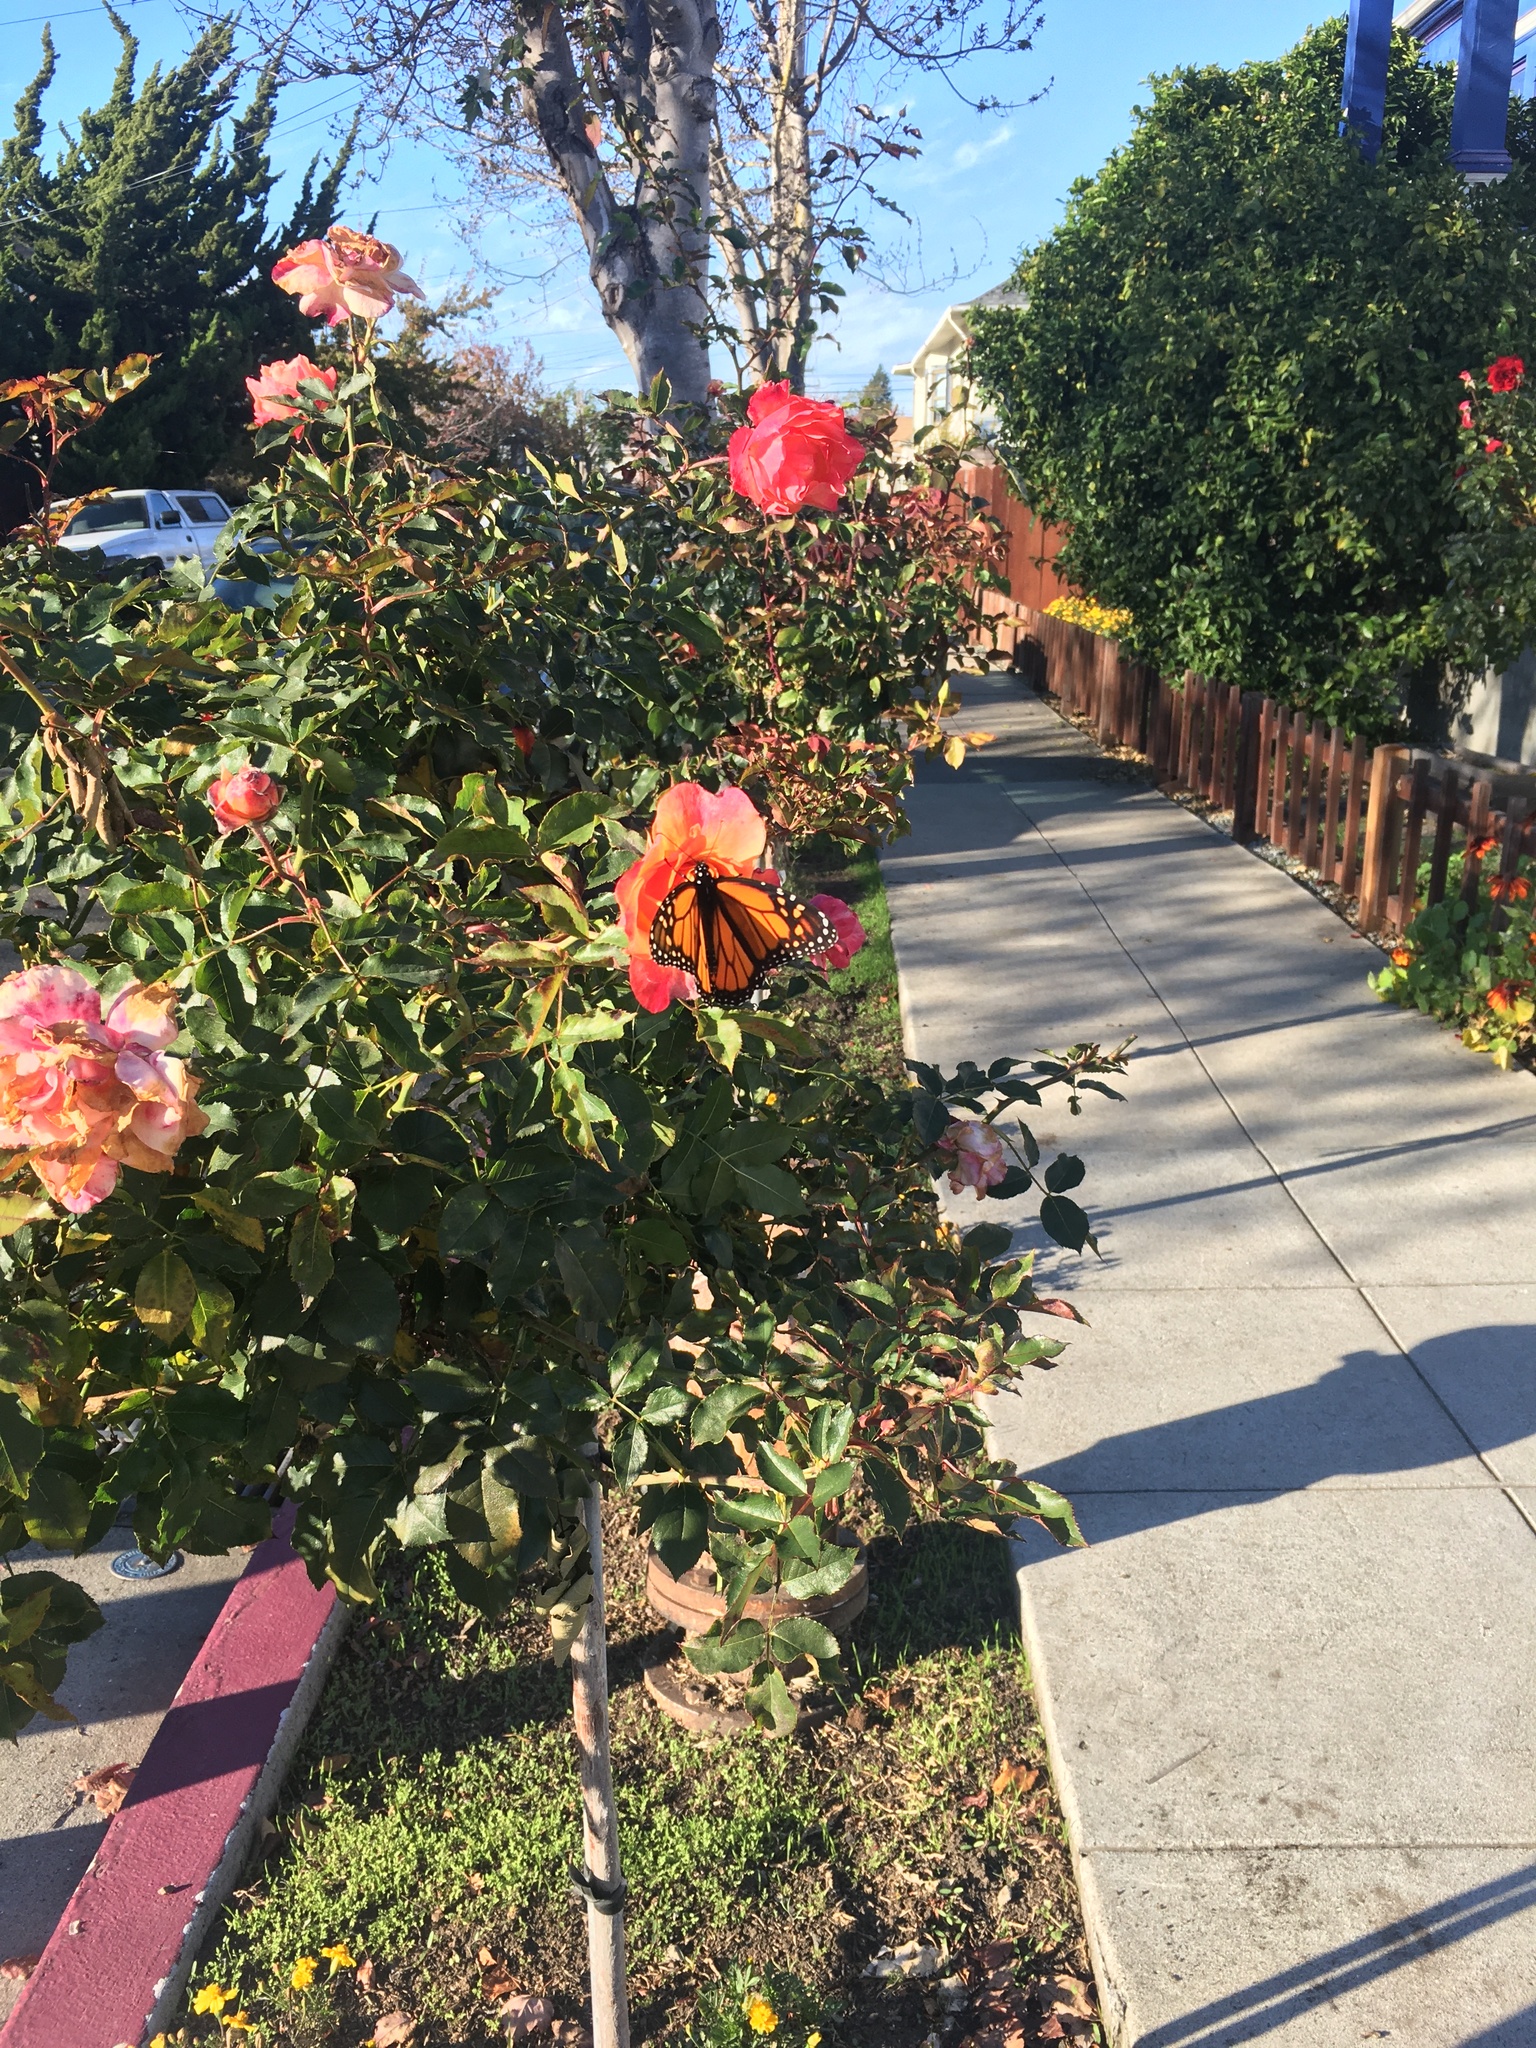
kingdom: Animalia
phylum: Arthropoda
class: Insecta
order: Lepidoptera
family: Nymphalidae
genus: Danaus
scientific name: Danaus plexippus
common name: Monarch
